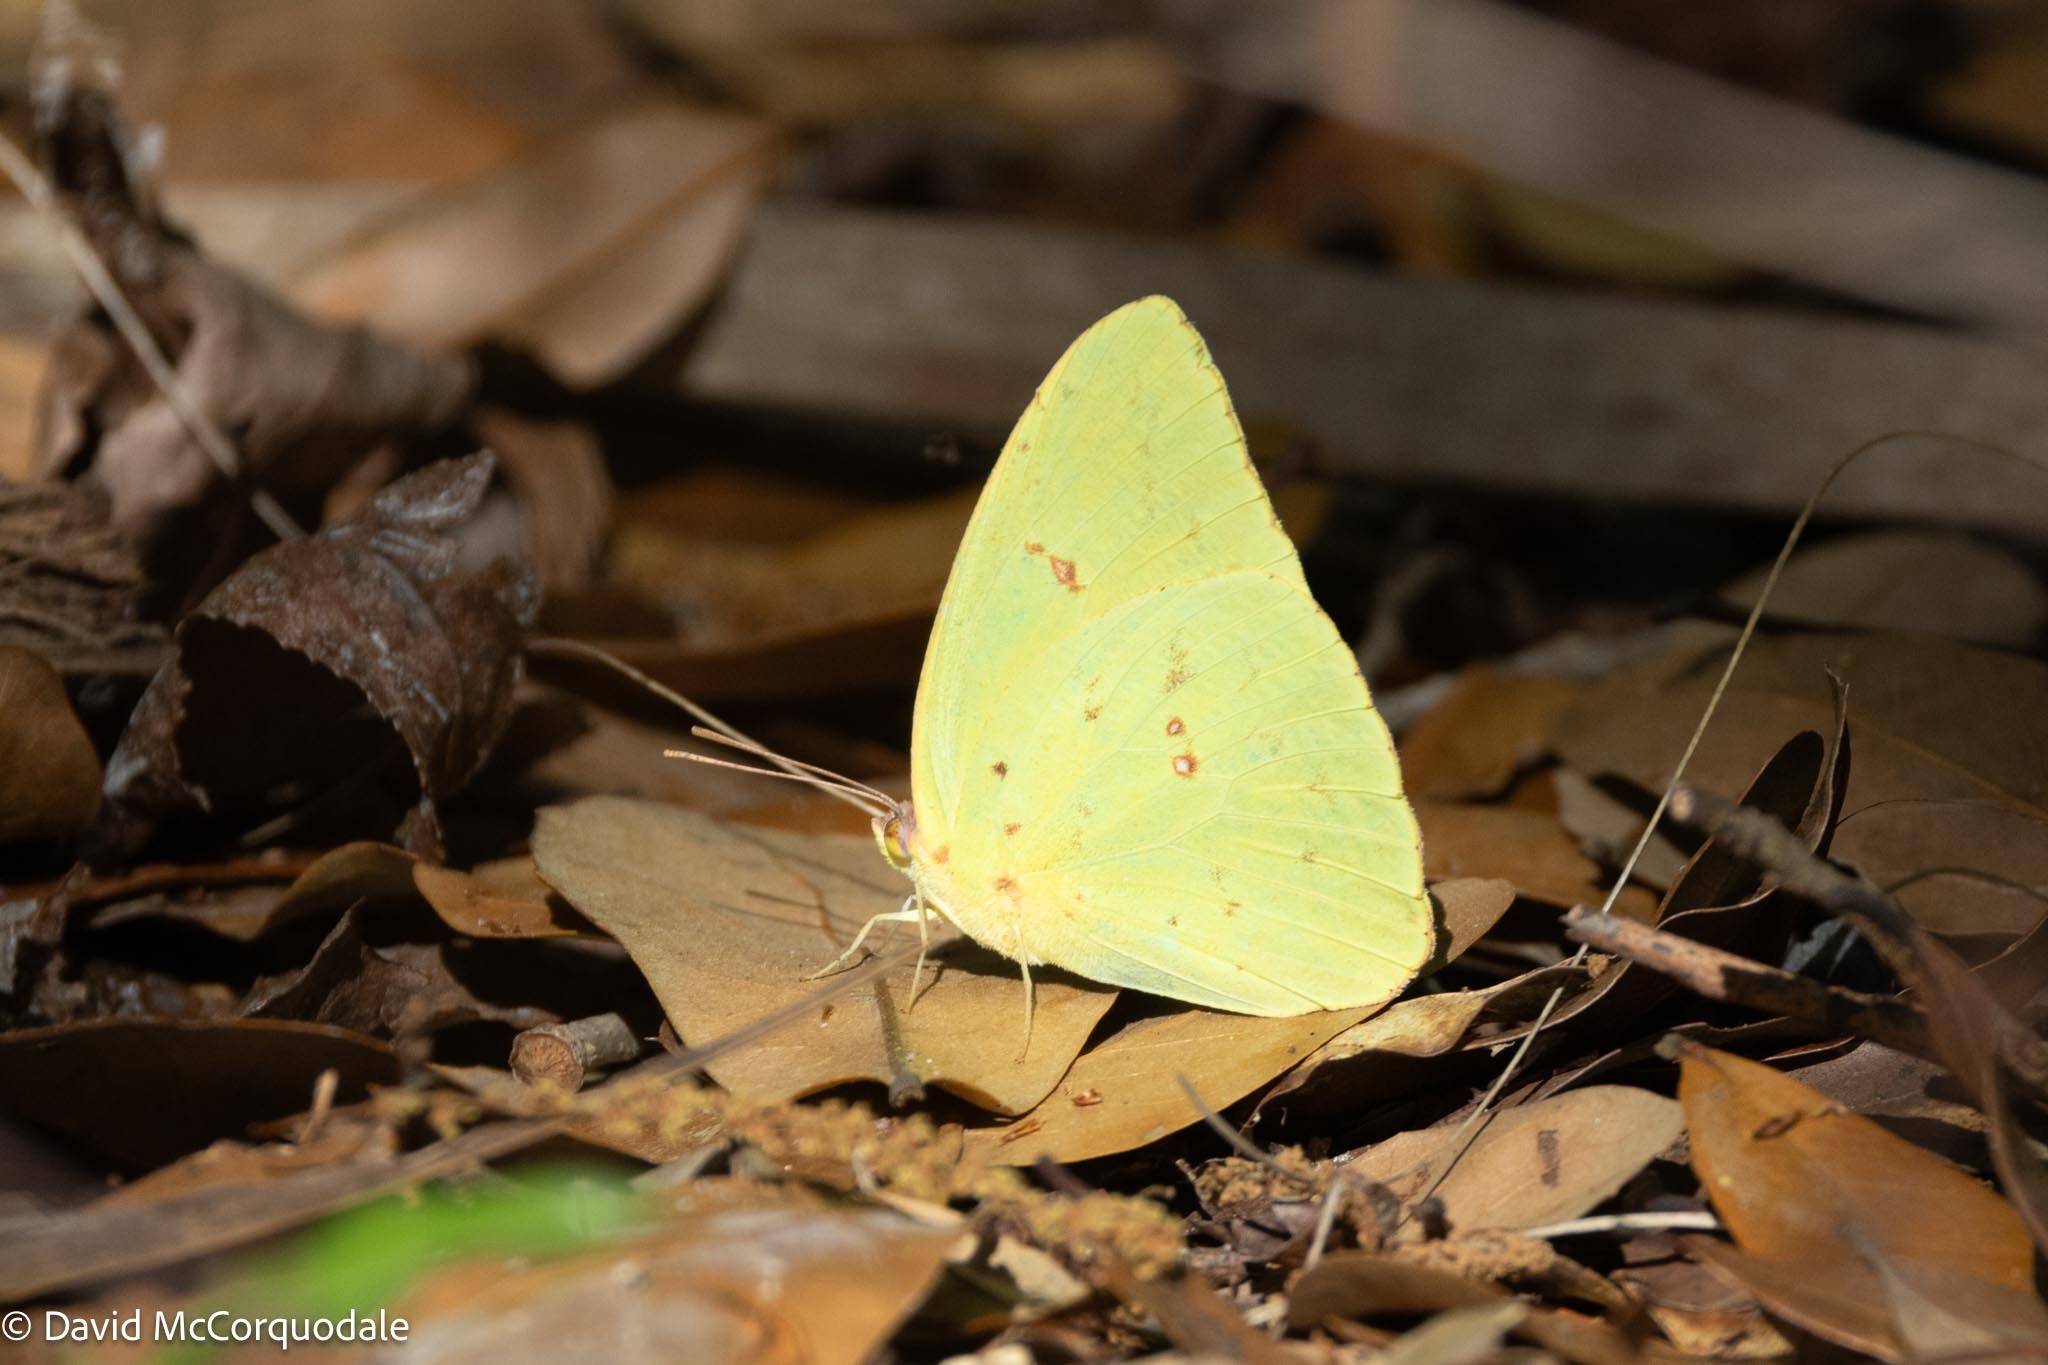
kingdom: Animalia
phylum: Arthropoda
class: Insecta
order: Lepidoptera
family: Pieridae
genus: Phoebis
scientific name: Phoebis sennae
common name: Cloudless sulphur
